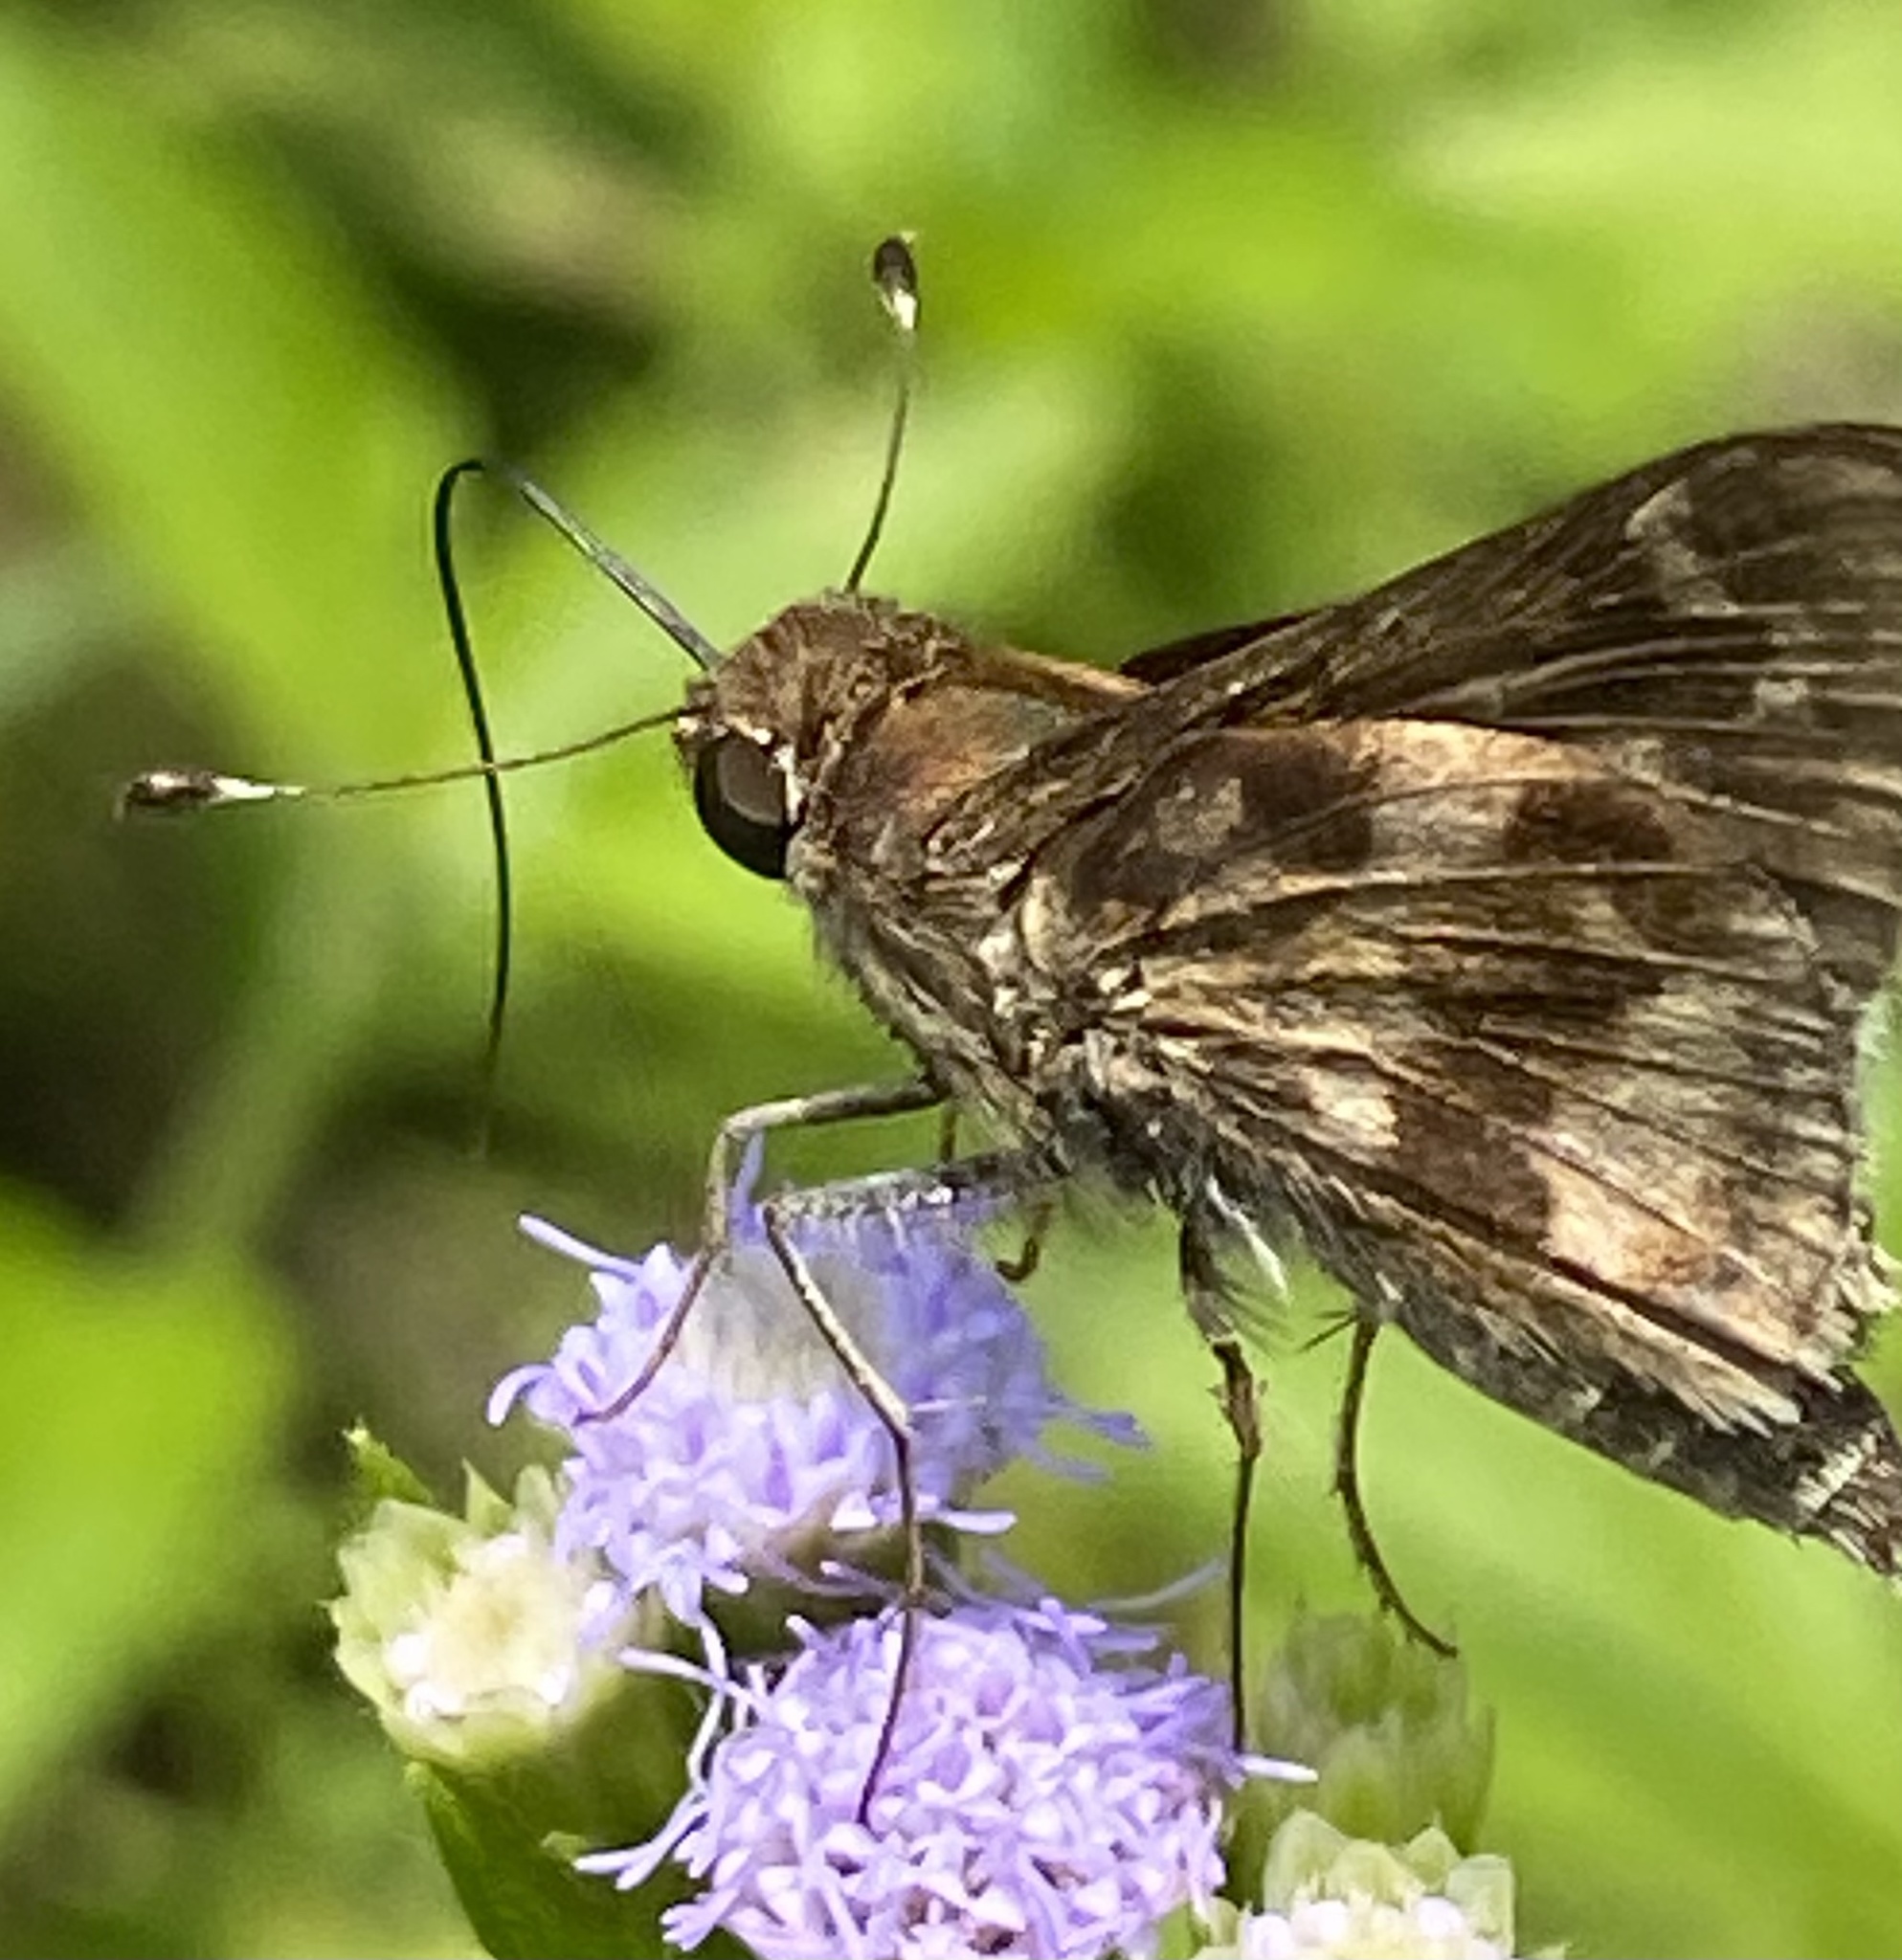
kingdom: Animalia
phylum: Arthropoda
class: Insecta
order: Lepidoptera
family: Hesperiidae
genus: Pompeius
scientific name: Pompeius pompeius
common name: Pompeius skipper
